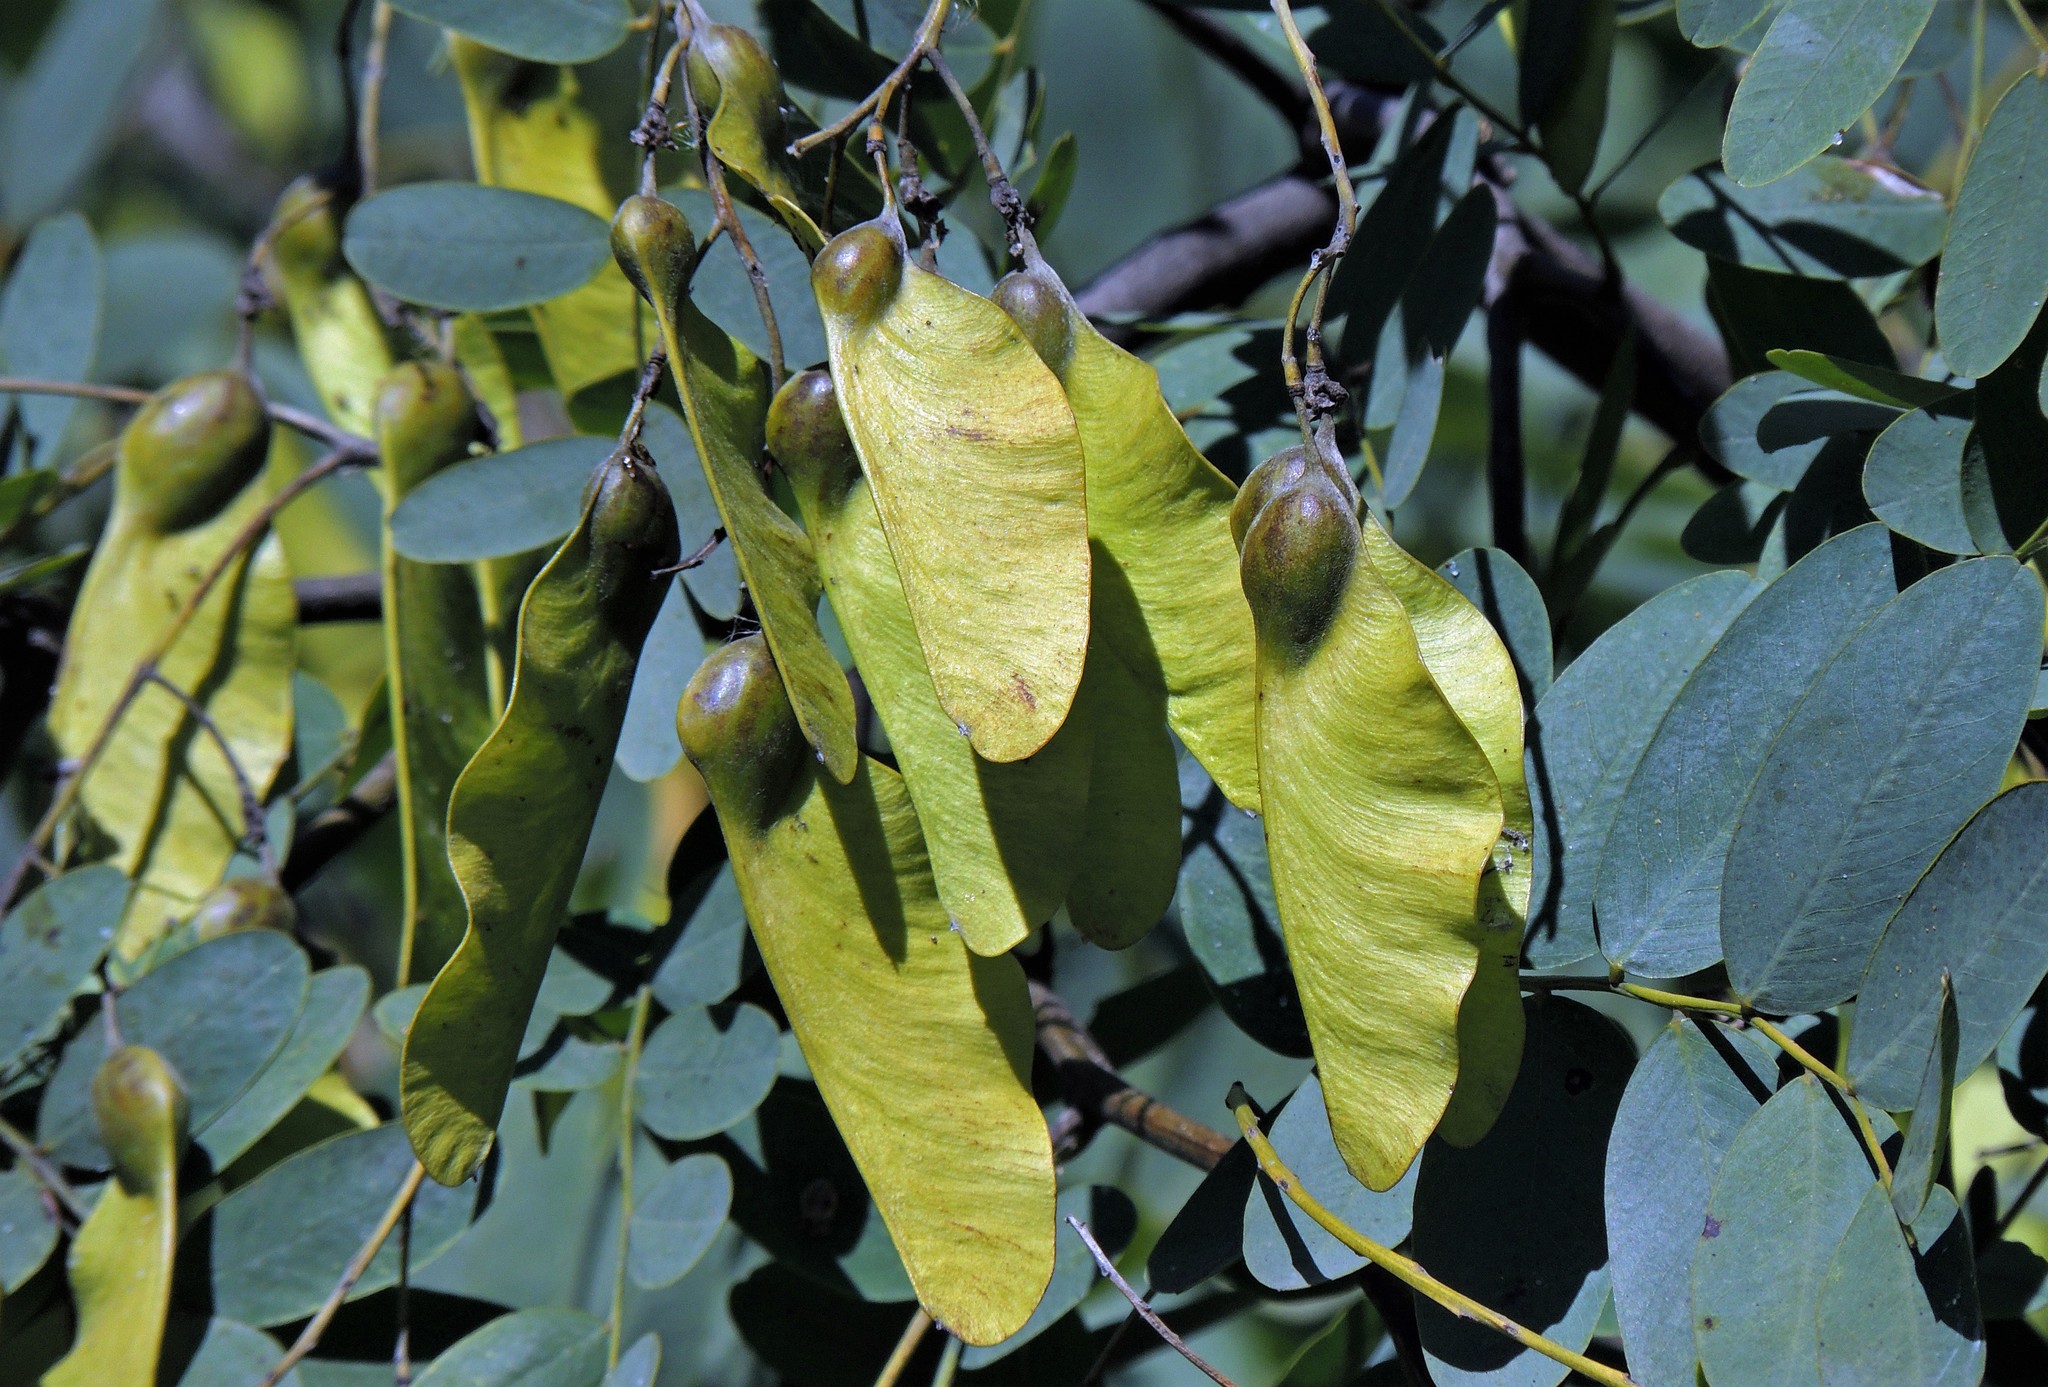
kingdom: Plantae
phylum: Tracheophyta
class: Magnoliopsida
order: Fabales
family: Fabaceae
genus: Tipuana
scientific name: Tipuana tipu
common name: Tiputree
